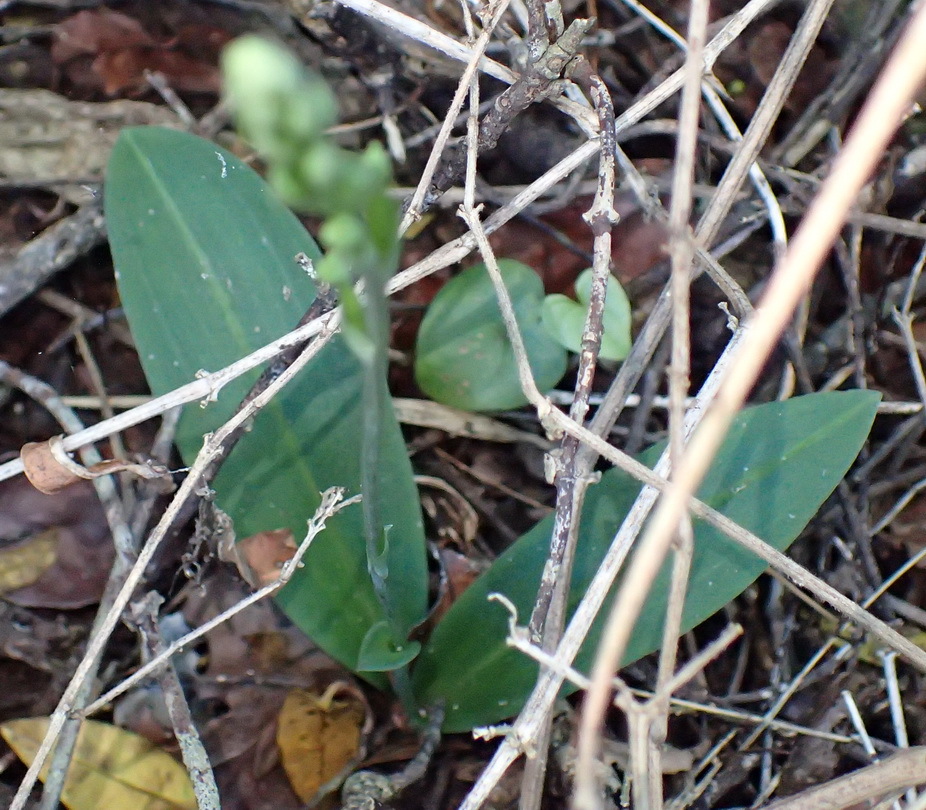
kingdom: Plantae
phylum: Tracheophyta
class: Liliopsida
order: Asparagales
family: Orchidaceae
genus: Habenaria
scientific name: Habenaria arenaria
